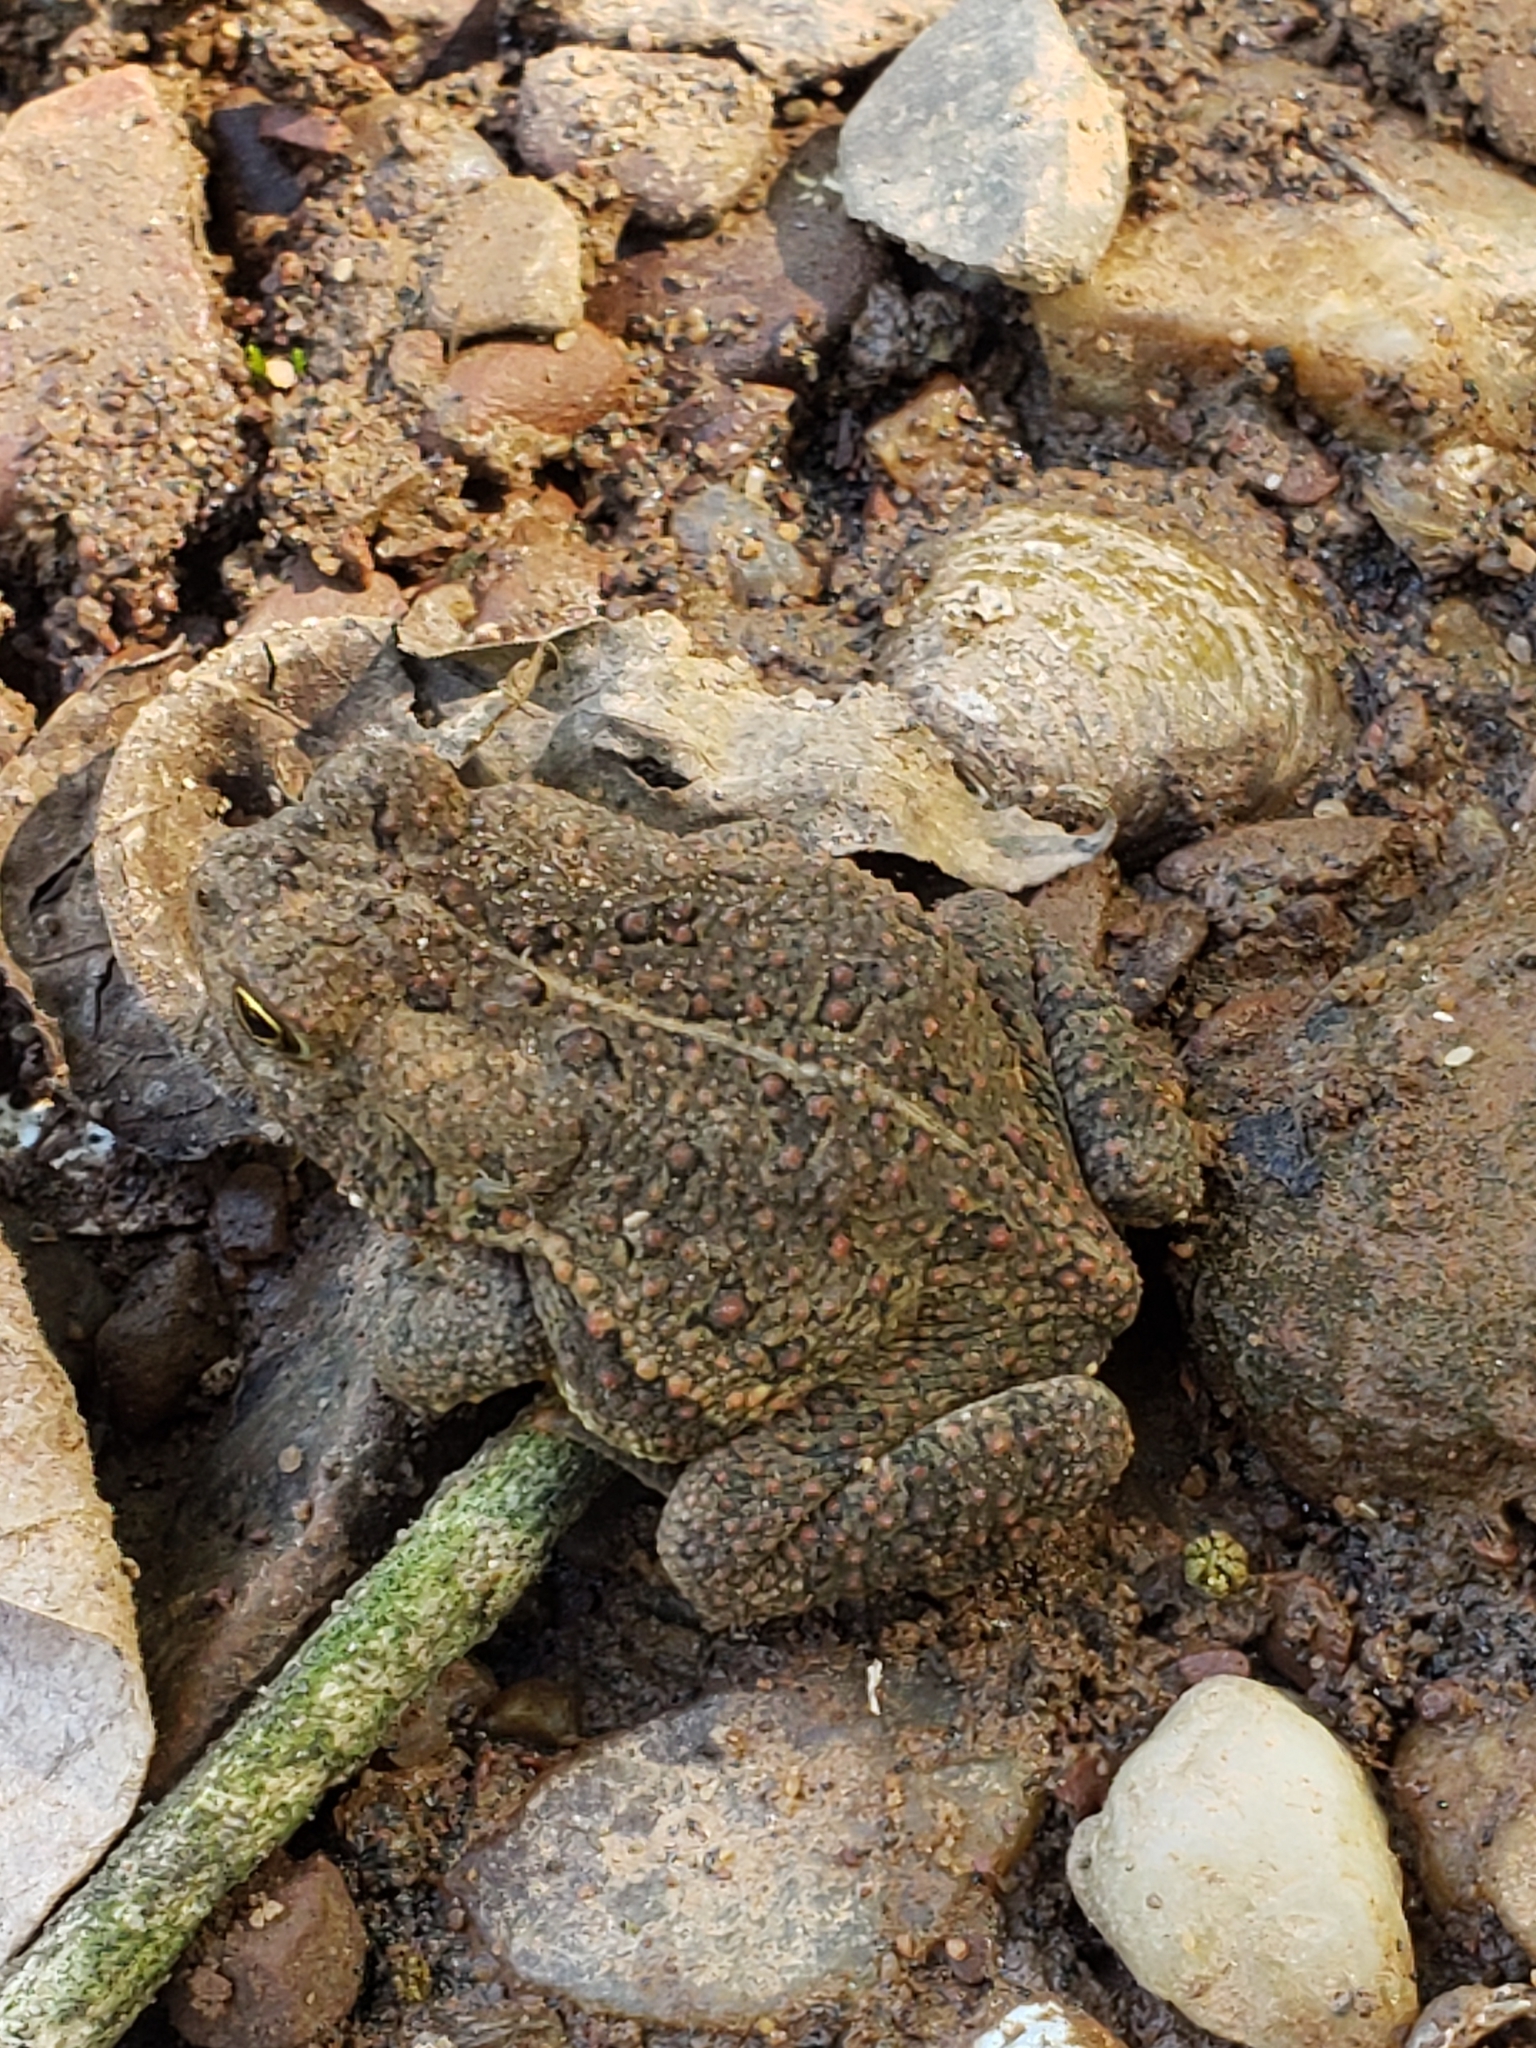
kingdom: Animalia
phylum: Chordata
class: Amphibia
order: Anura
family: Bufonidae
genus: Anaxyrus
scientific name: Anaxyrus americanus
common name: American toad
